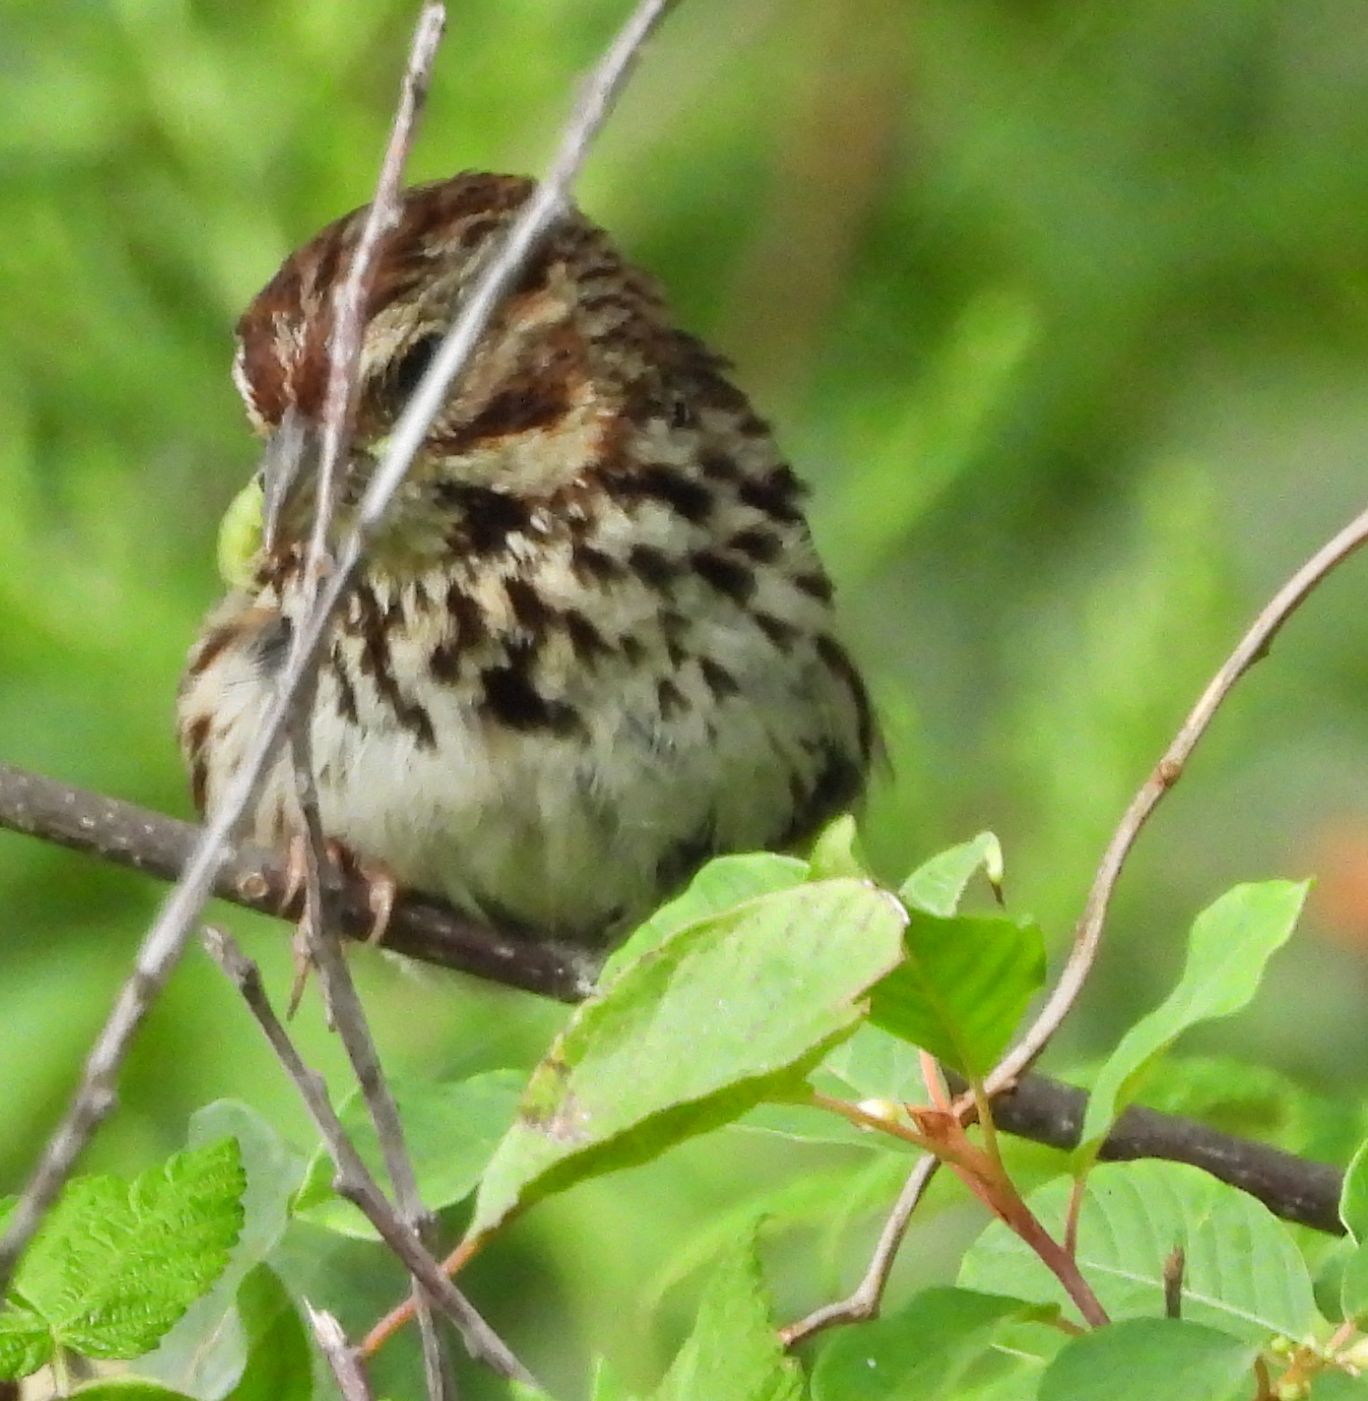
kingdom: Animalia
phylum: Chordata
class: Aves
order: Passeriformes
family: Passerellidae
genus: Melospiza
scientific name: Melospiza melodia
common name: Song sparrow
